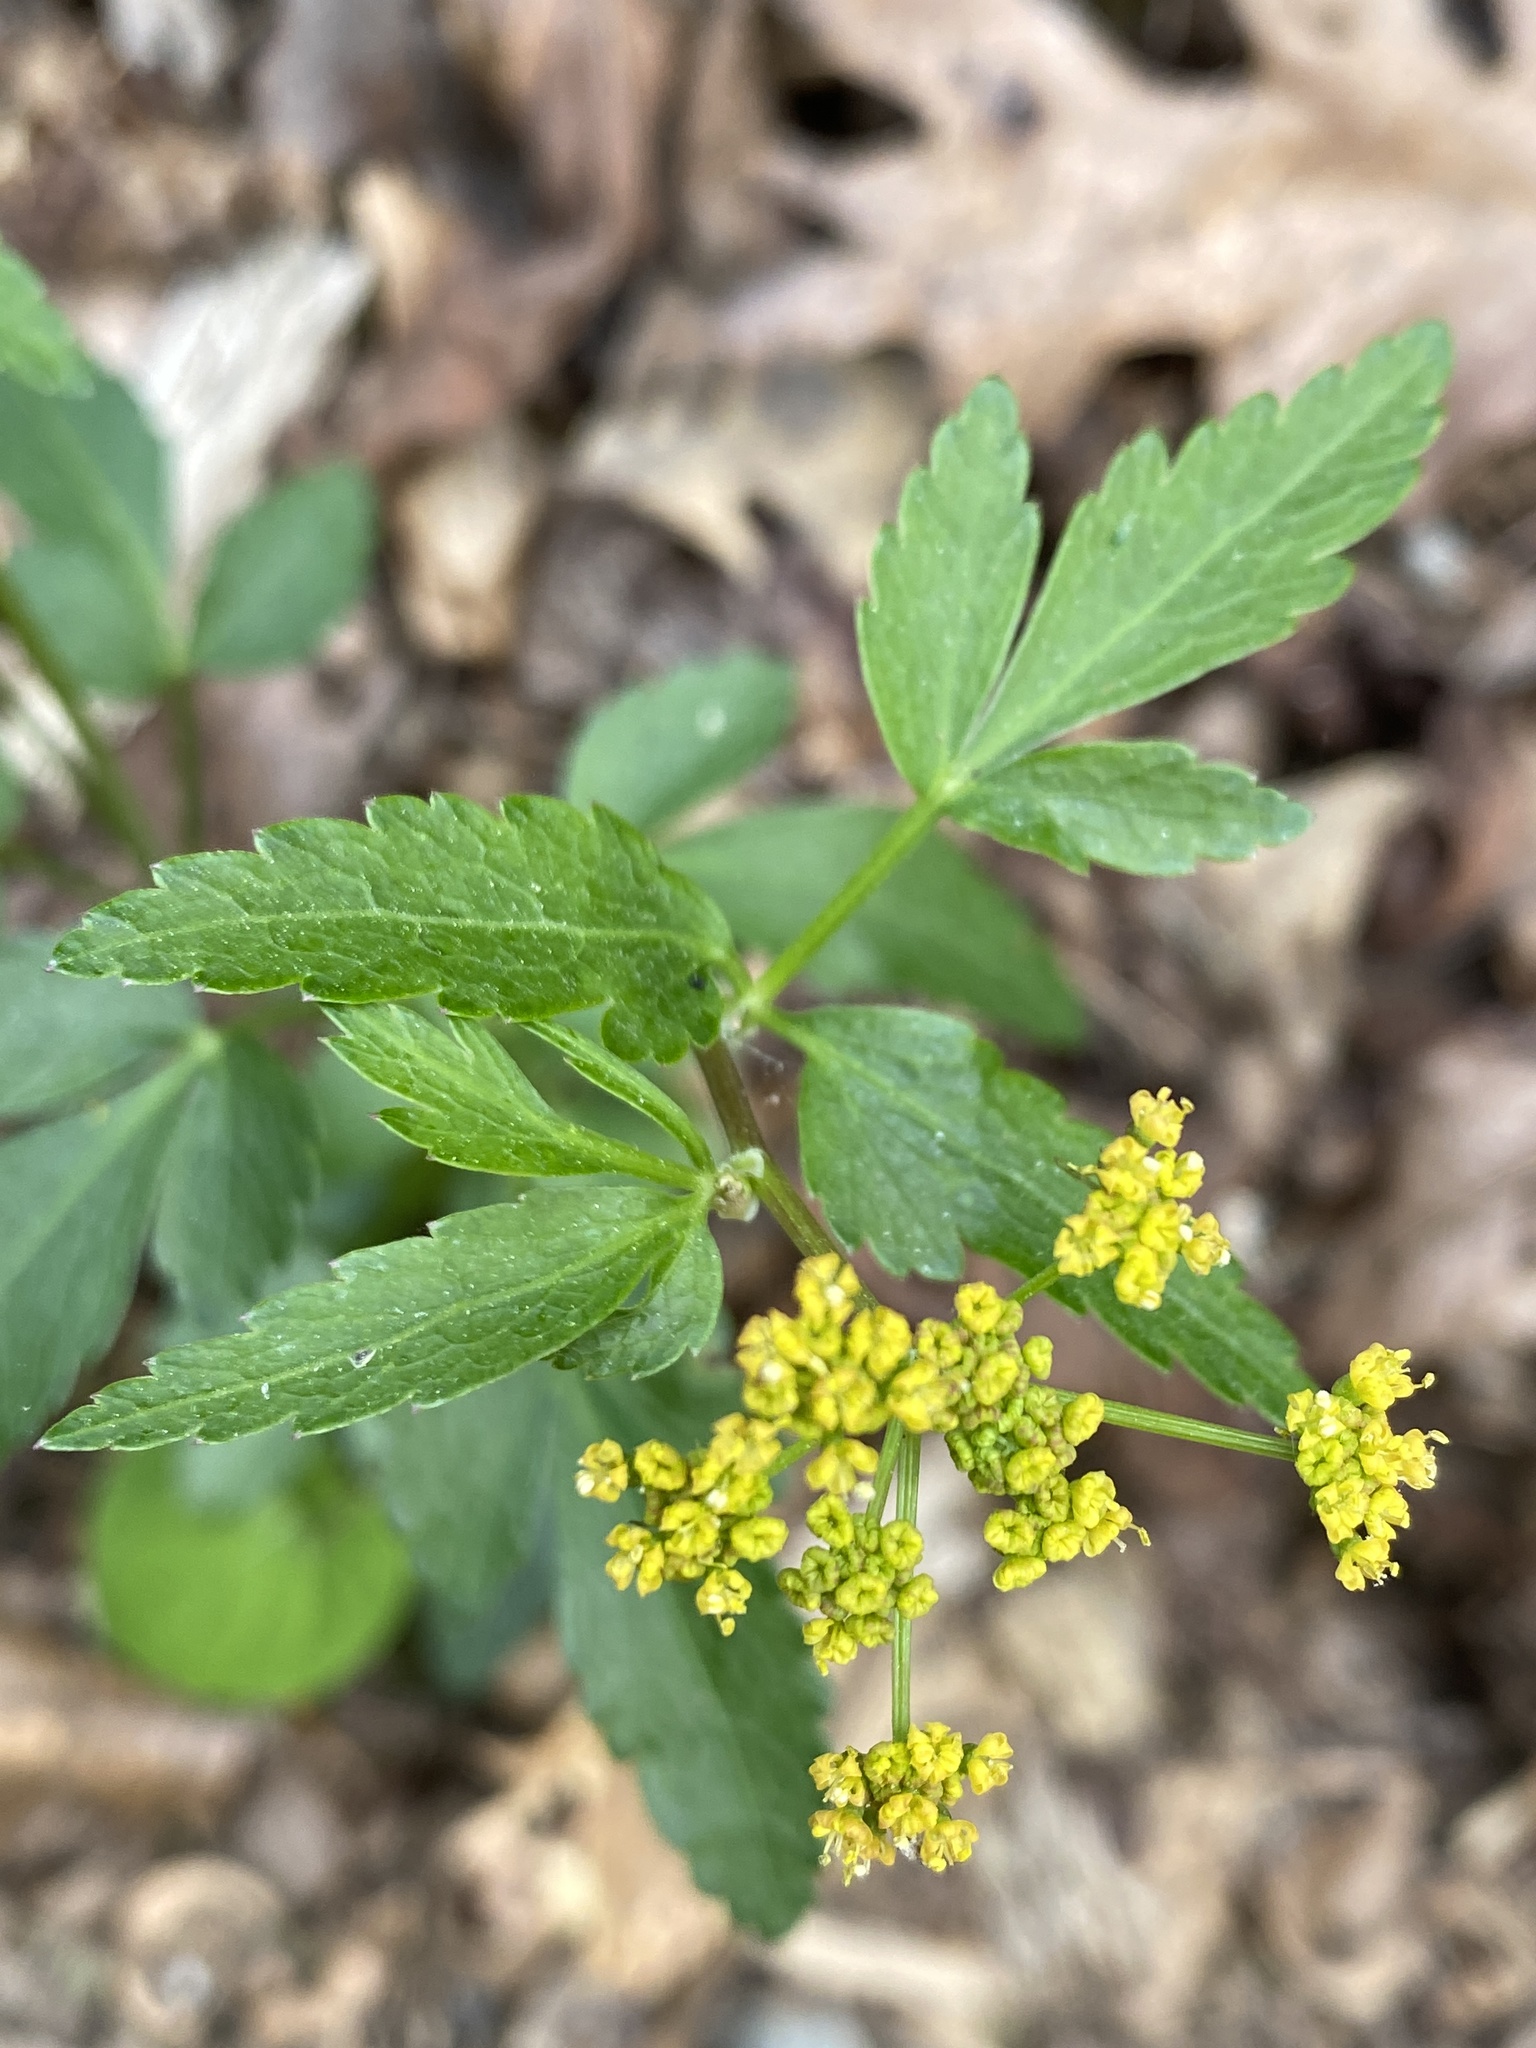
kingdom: Plantae
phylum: Tracheophyta
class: Magnoliopsida
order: Apiales
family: Apiaceae
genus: Zizia
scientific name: Zizia aurea
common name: Golden alexanders
